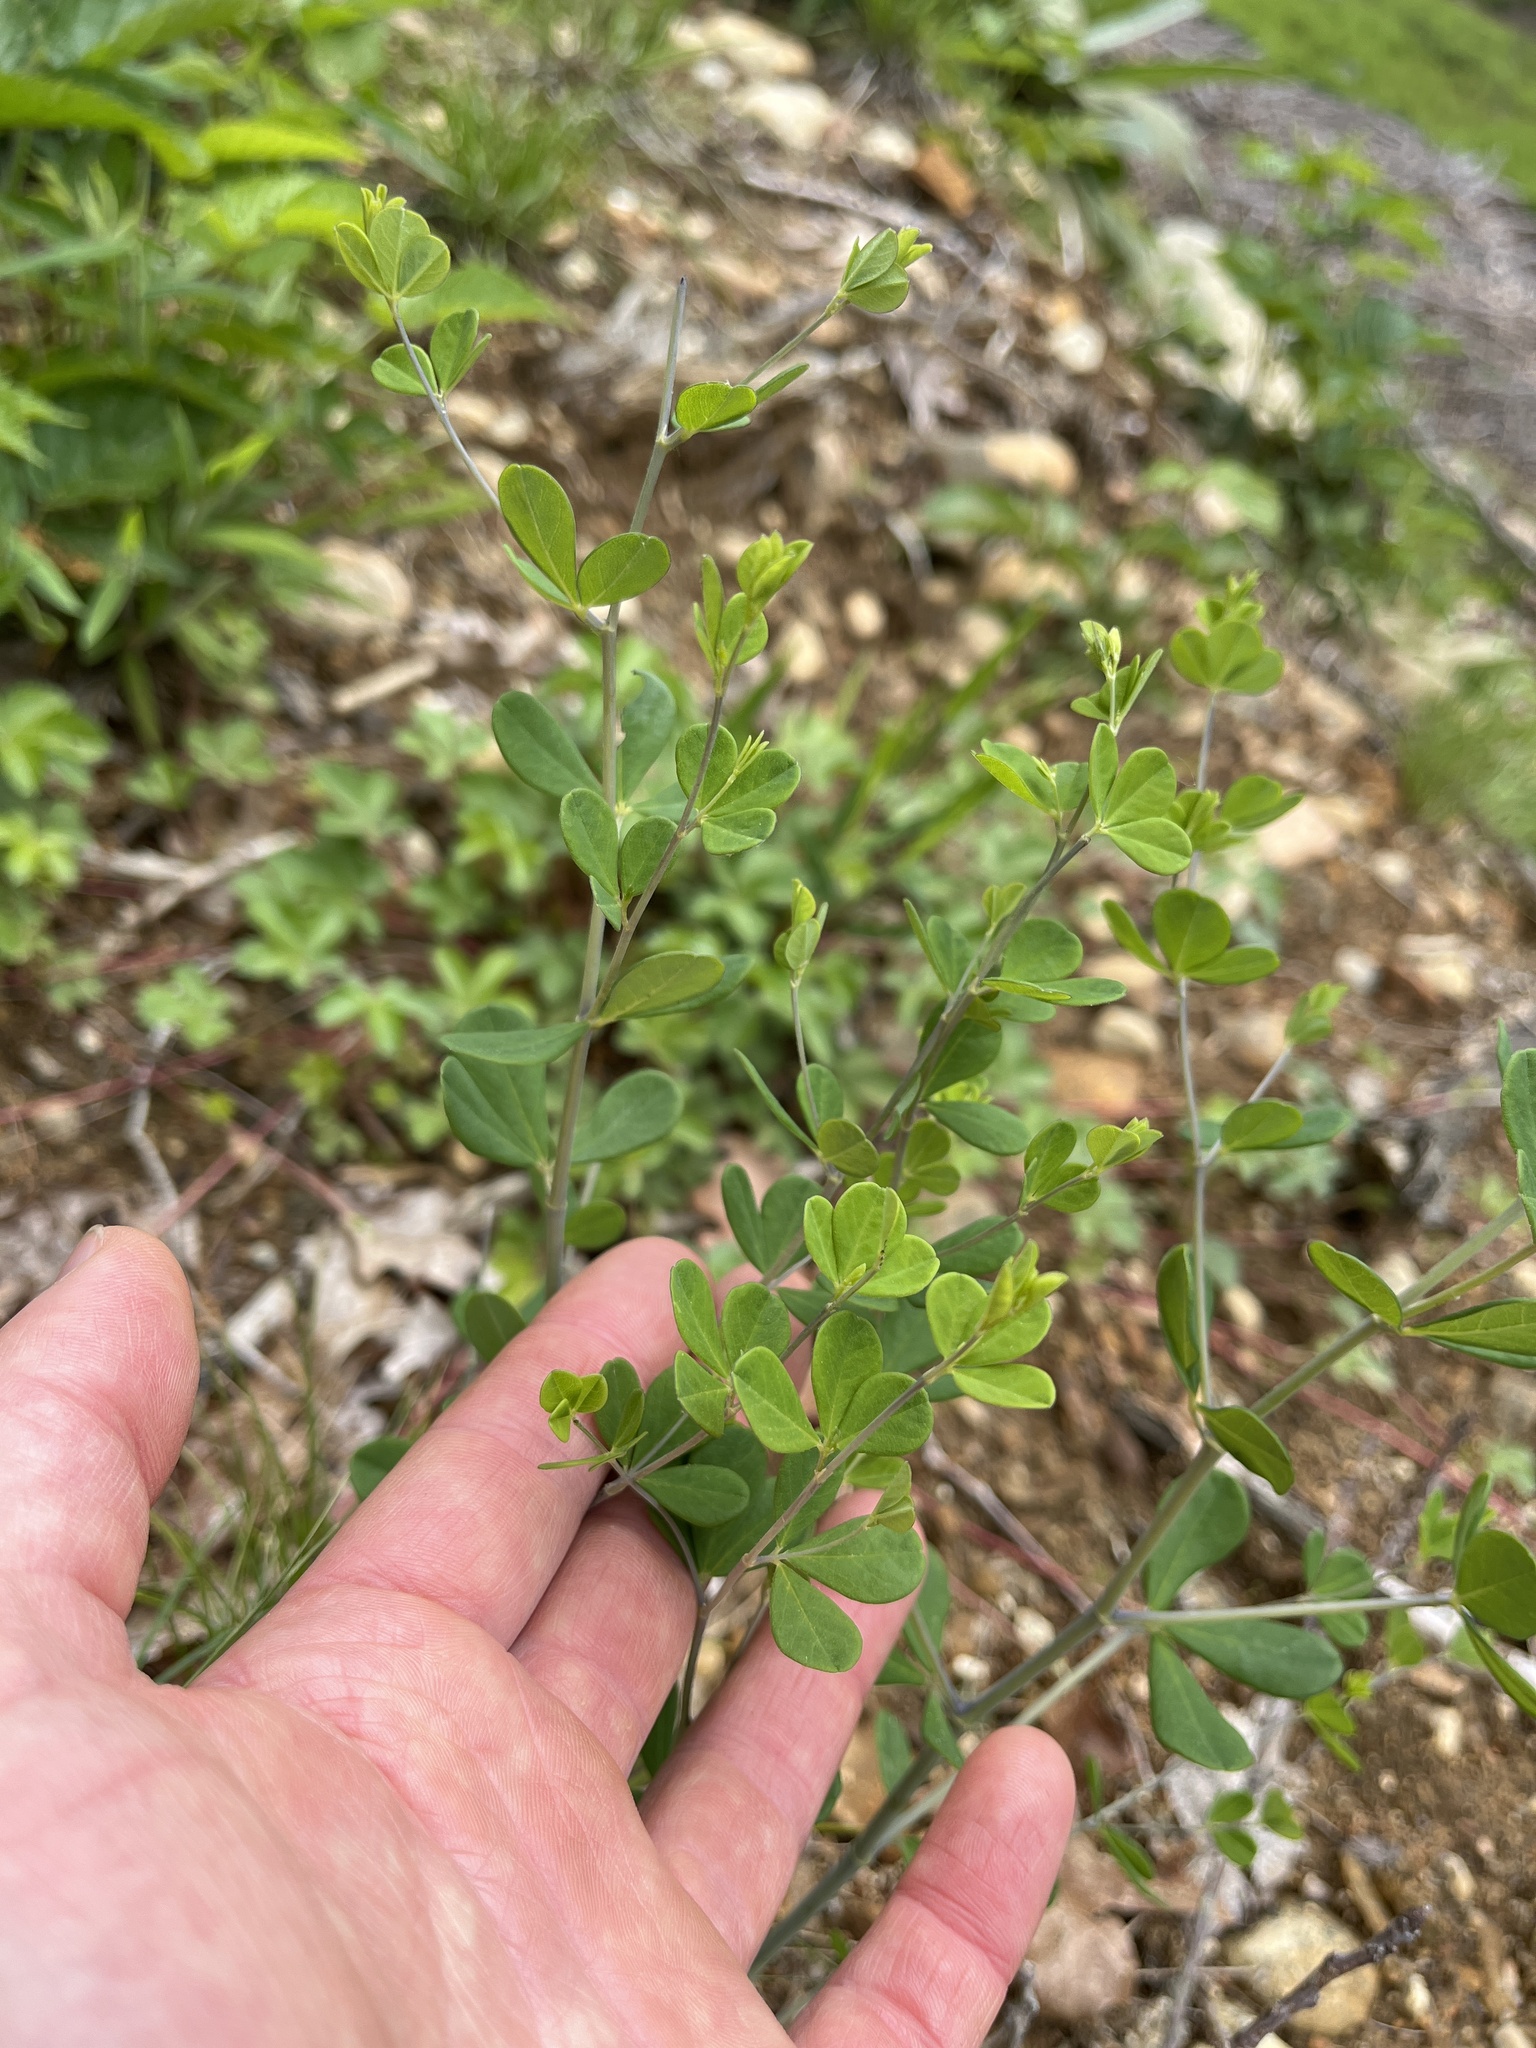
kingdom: Plantae
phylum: Tracheophyta
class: Magnoliopsida
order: Fabales
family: Fabaceae
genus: Baptisia
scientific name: Baptisia tinctoria
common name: Wild indigo
